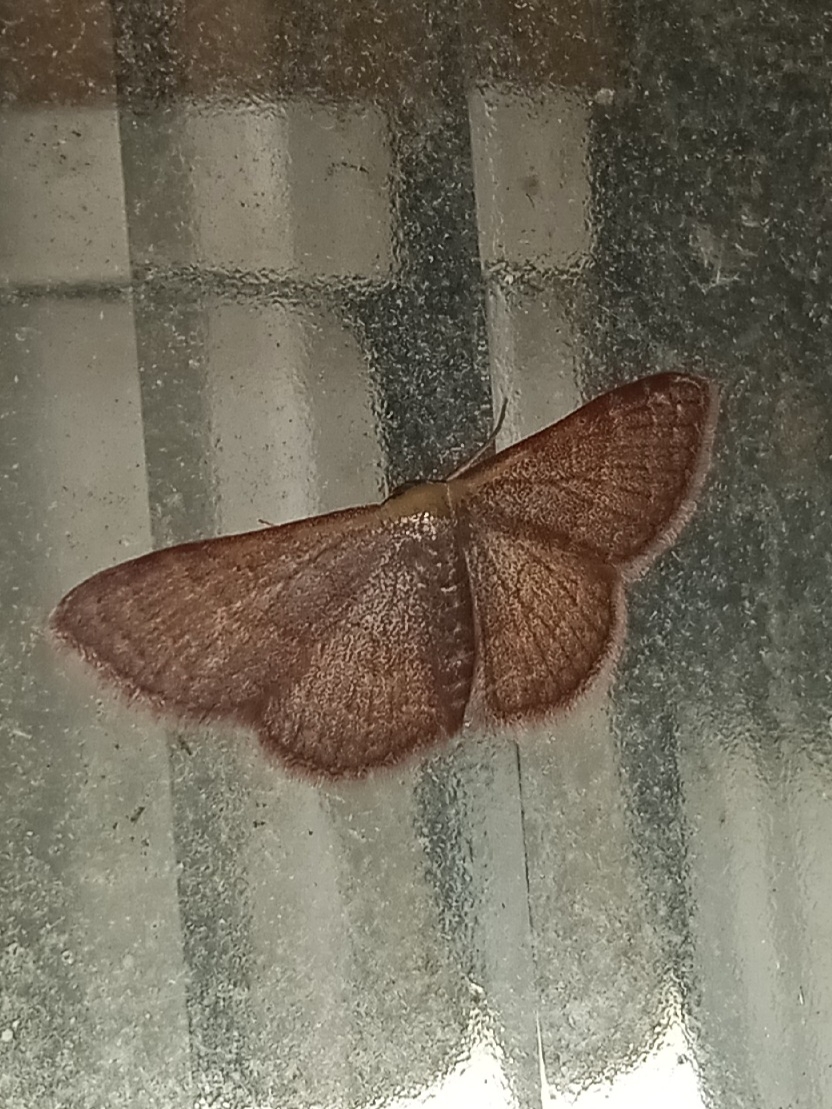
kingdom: Animalia
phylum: Arthropoda
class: Insecta
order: Lepidoptera
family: Geometridae
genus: Leptostales
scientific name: Leptostales pannaria
